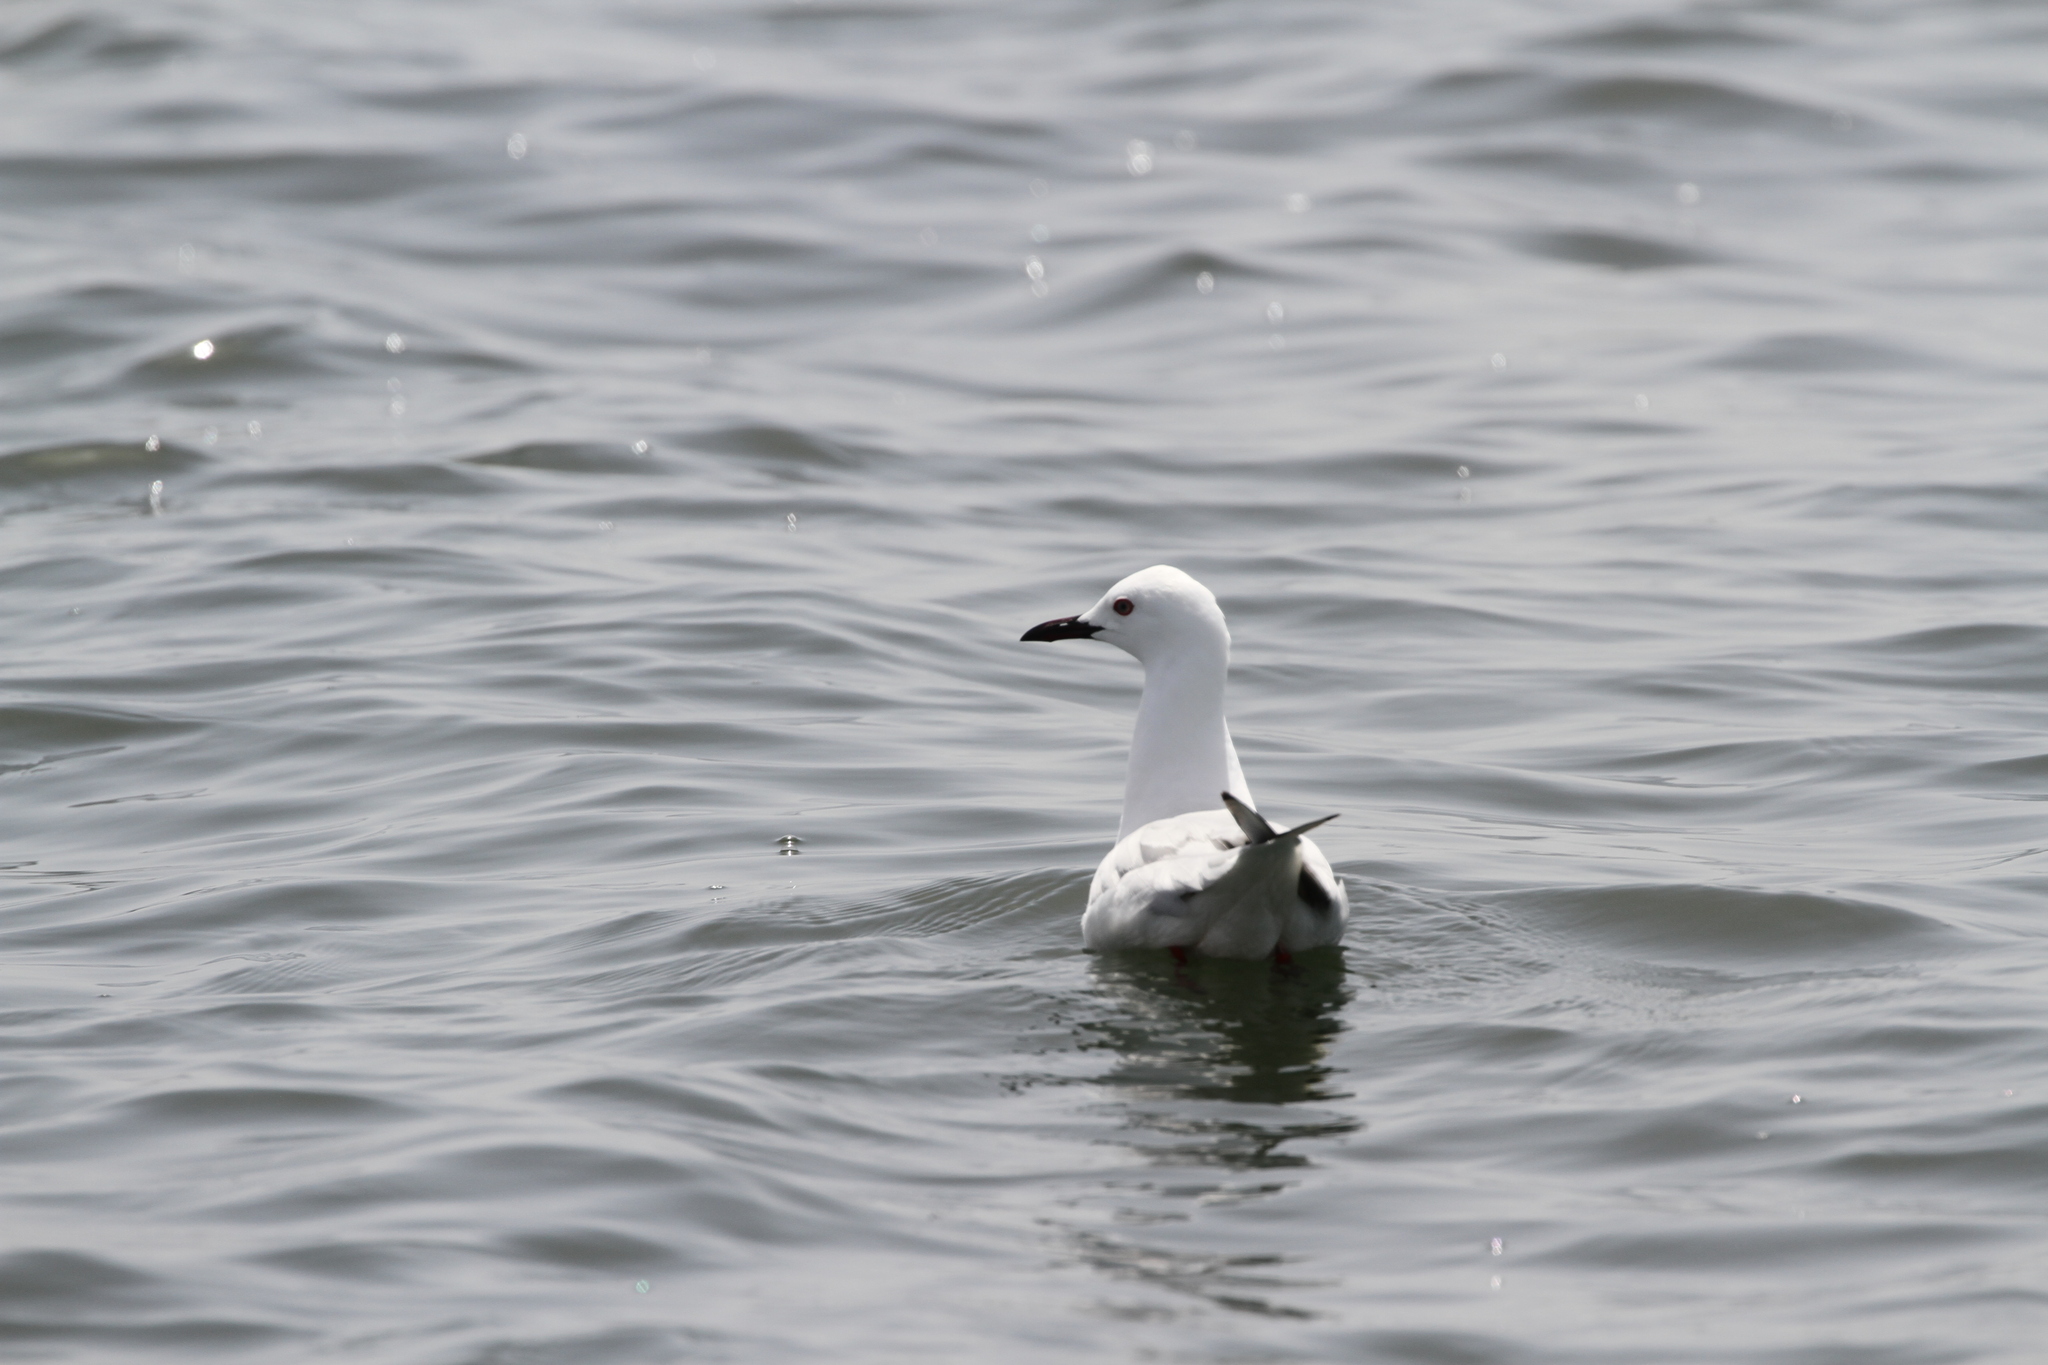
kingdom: Animalia
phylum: Chordata
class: Aves
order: Charadriiformes
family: Laridae
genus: Chroicocephalus
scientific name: Chroicocephalus genei
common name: Slender-billed gull
